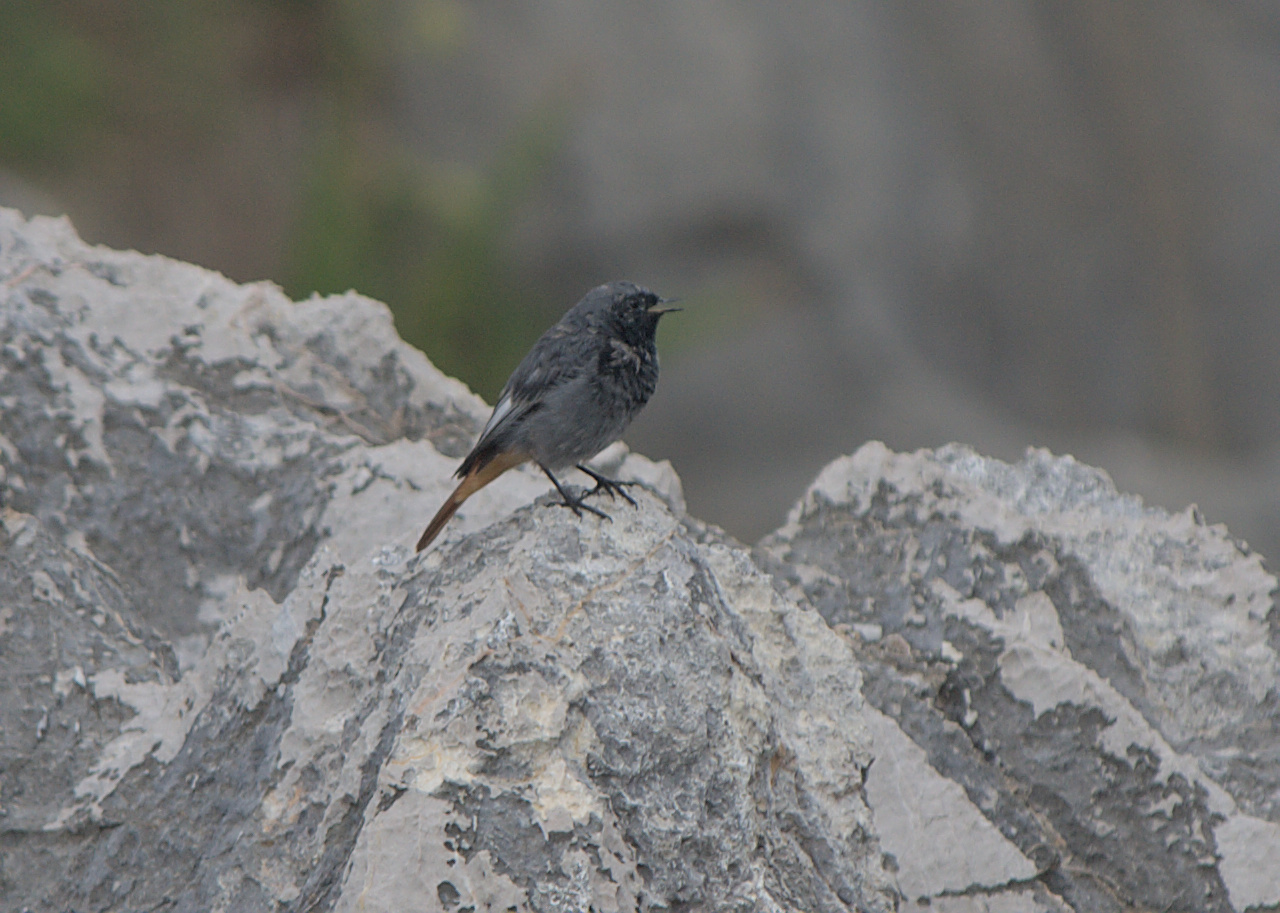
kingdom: Animalia
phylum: Chordata
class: Aves
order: Passeriformes
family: Muscicapidae
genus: Phoenicurus
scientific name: Phoenicurus ochruros
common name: Black redstart
